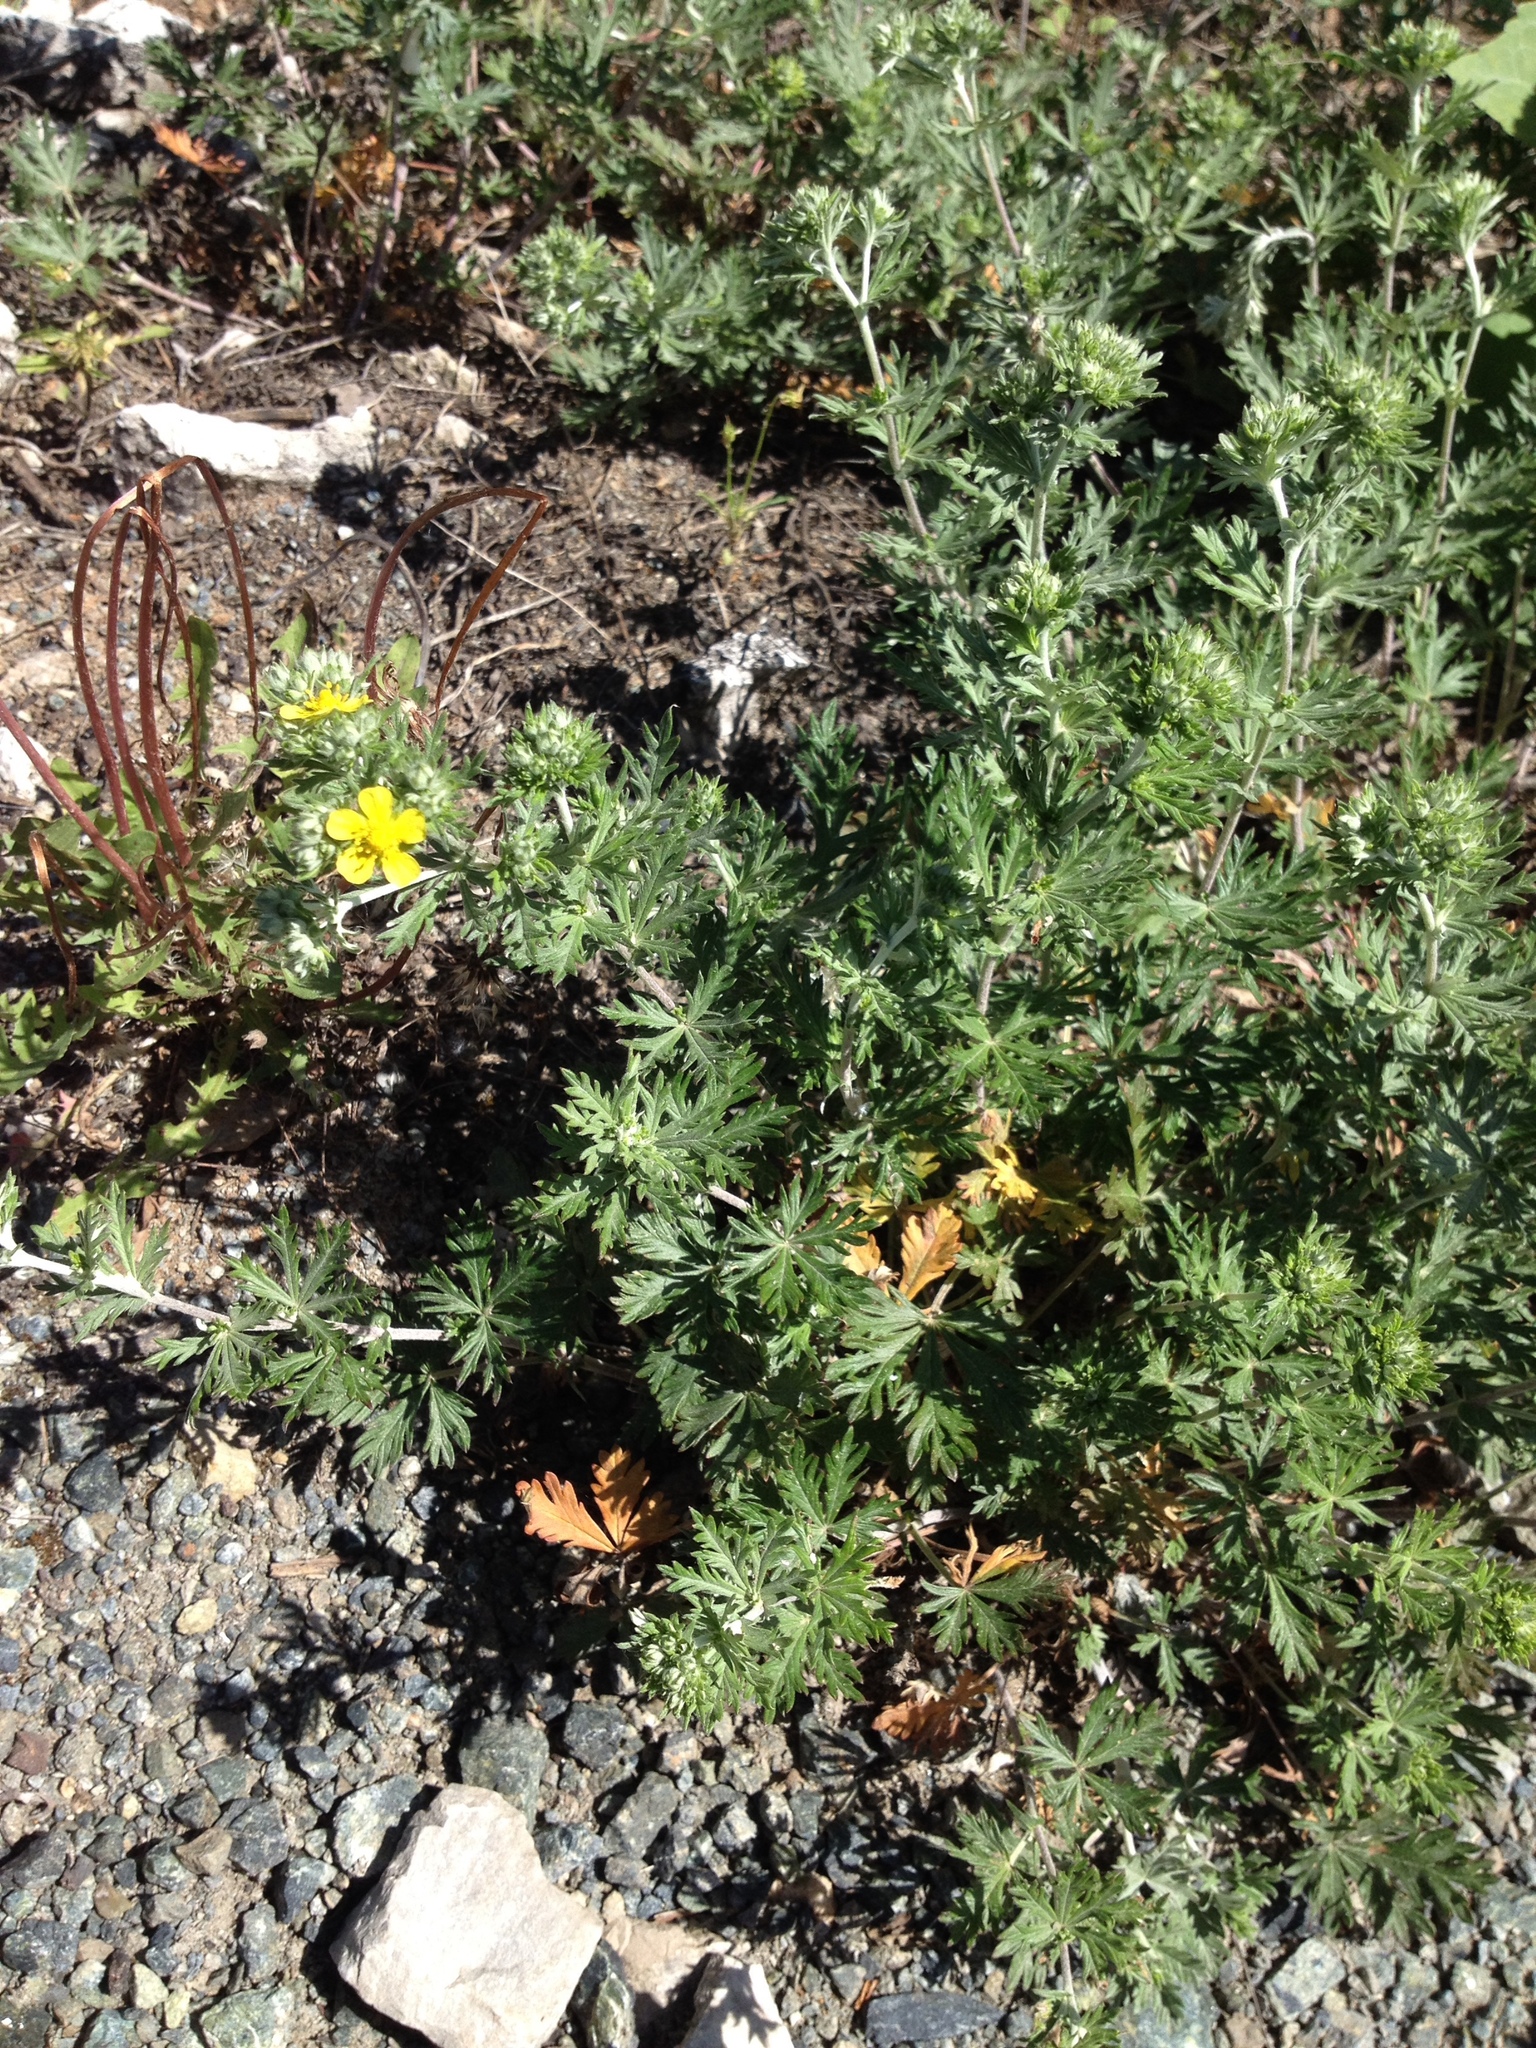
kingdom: Plantae
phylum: Tracheophyta
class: Magnoliopsida
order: Rosales
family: Rosaceae
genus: Potentilla
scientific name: Potentilla argentea
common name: Hoary cinquefoil
